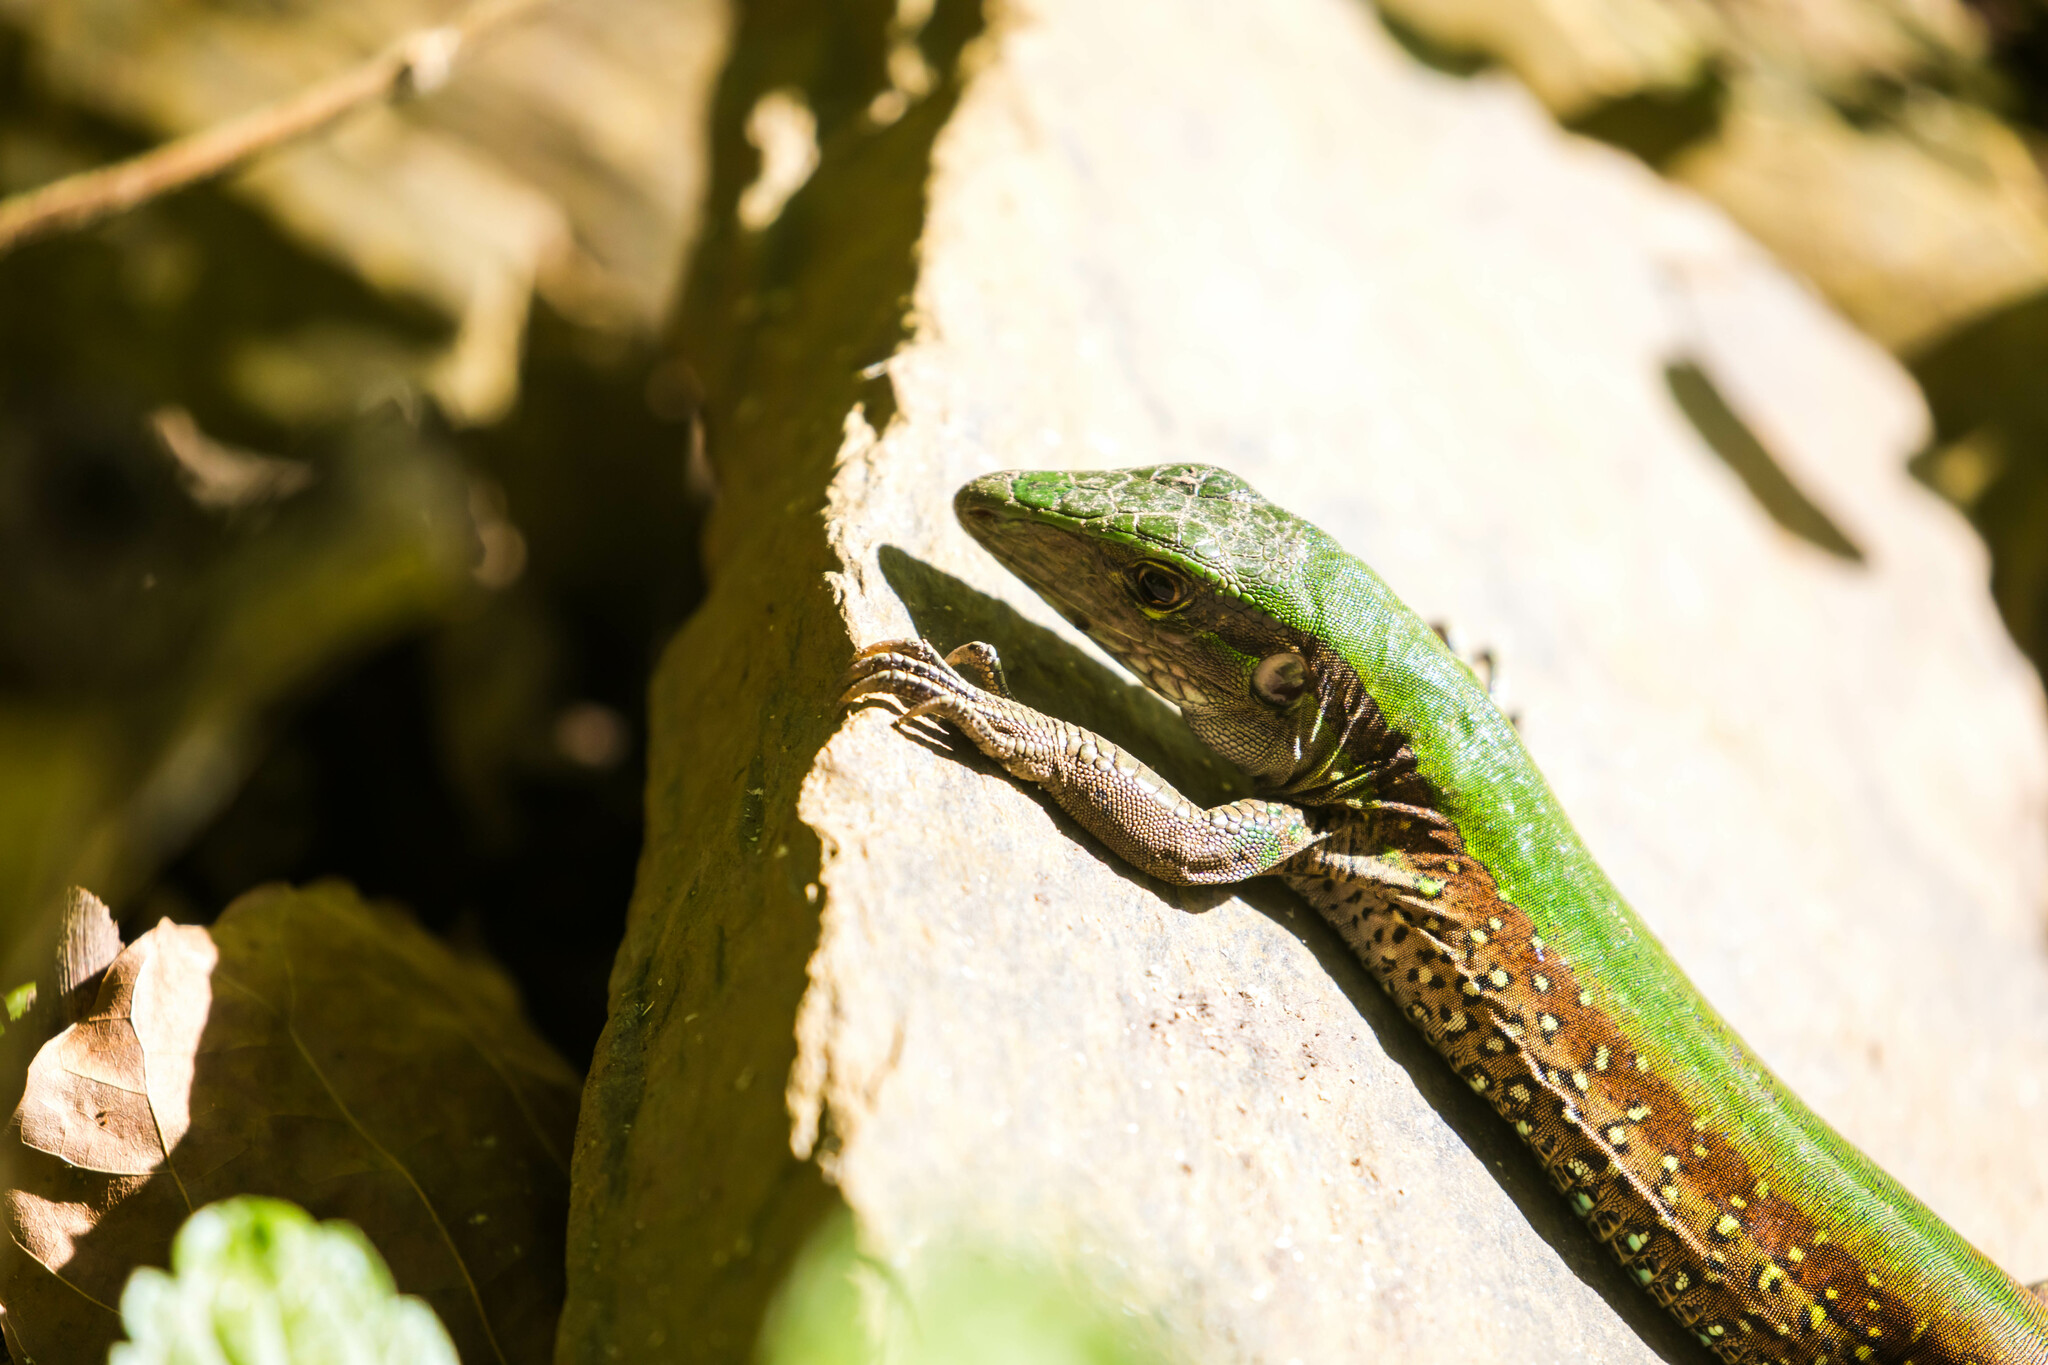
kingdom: Animalia
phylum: Chordata
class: Squamata
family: Teiidae
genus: Ameiva
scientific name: Ameiva atrigularis
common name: Venezuelan ameiva
